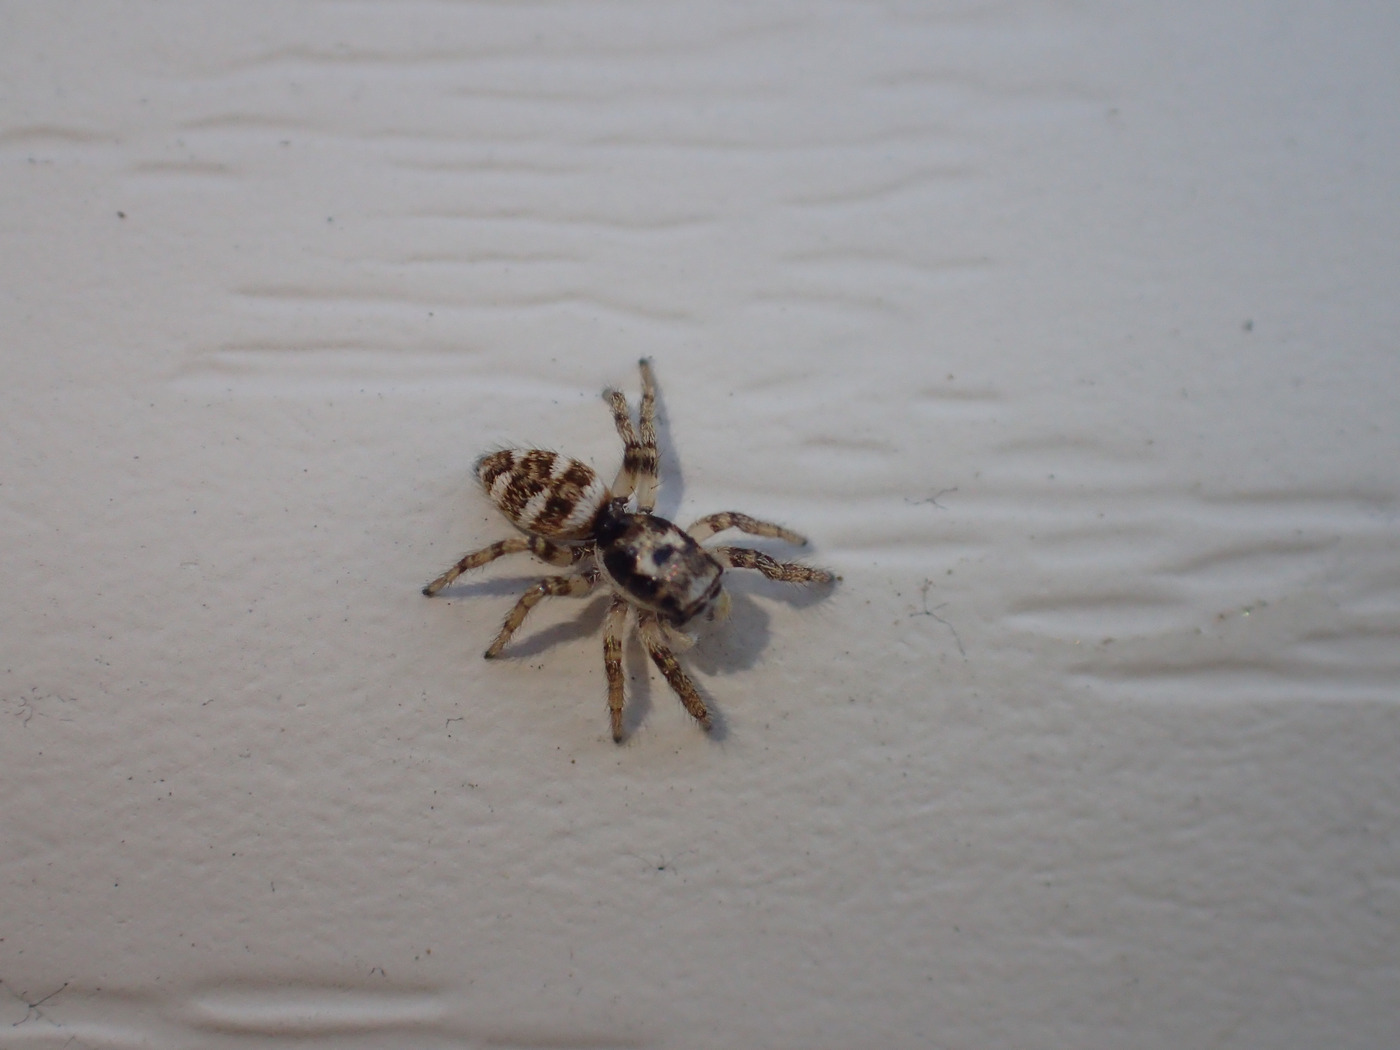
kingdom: Animalia
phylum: Arthropoda
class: Arachnida
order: Araneae
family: Salticidae
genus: Salticus
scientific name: Salticus scenicus
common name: Zebra jumper
